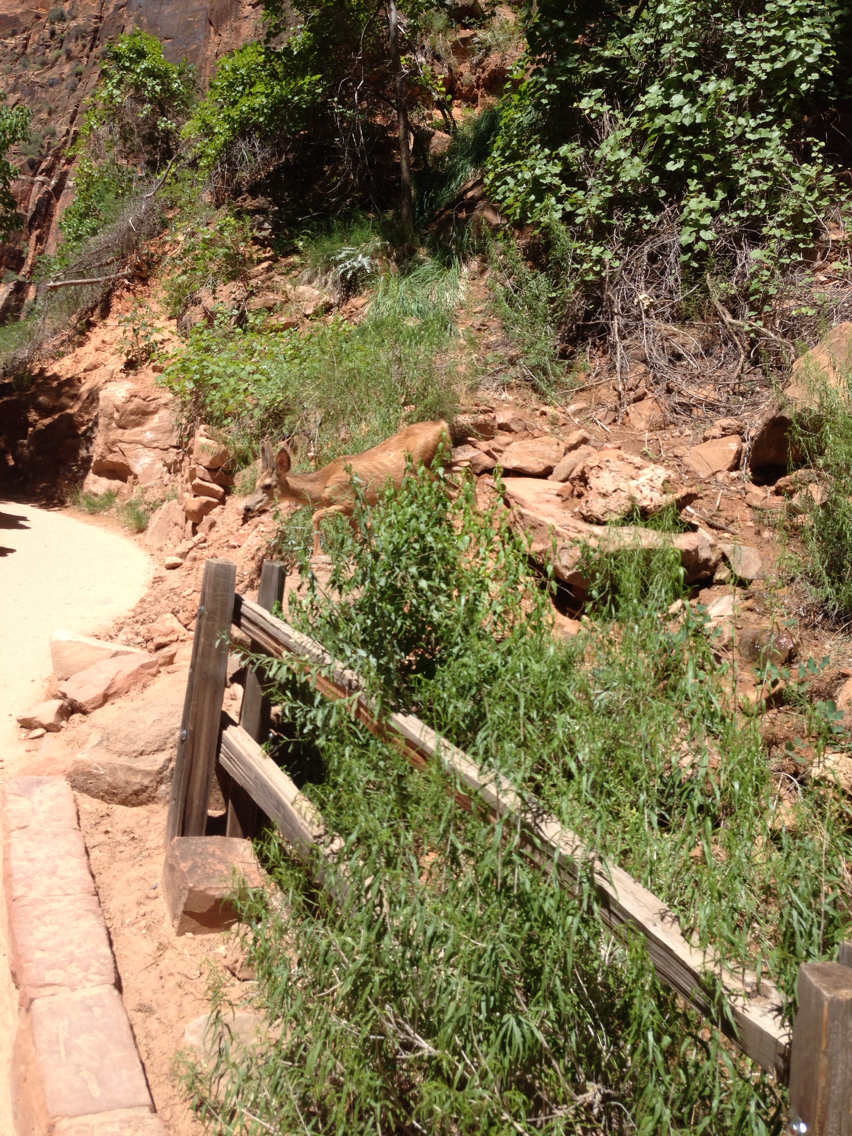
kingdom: Animalia
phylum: Chordata
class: Mammalia
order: Artiodactyla
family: Cervidae
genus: Odocoileus
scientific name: Odocoileus hemionus
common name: Mule deer
